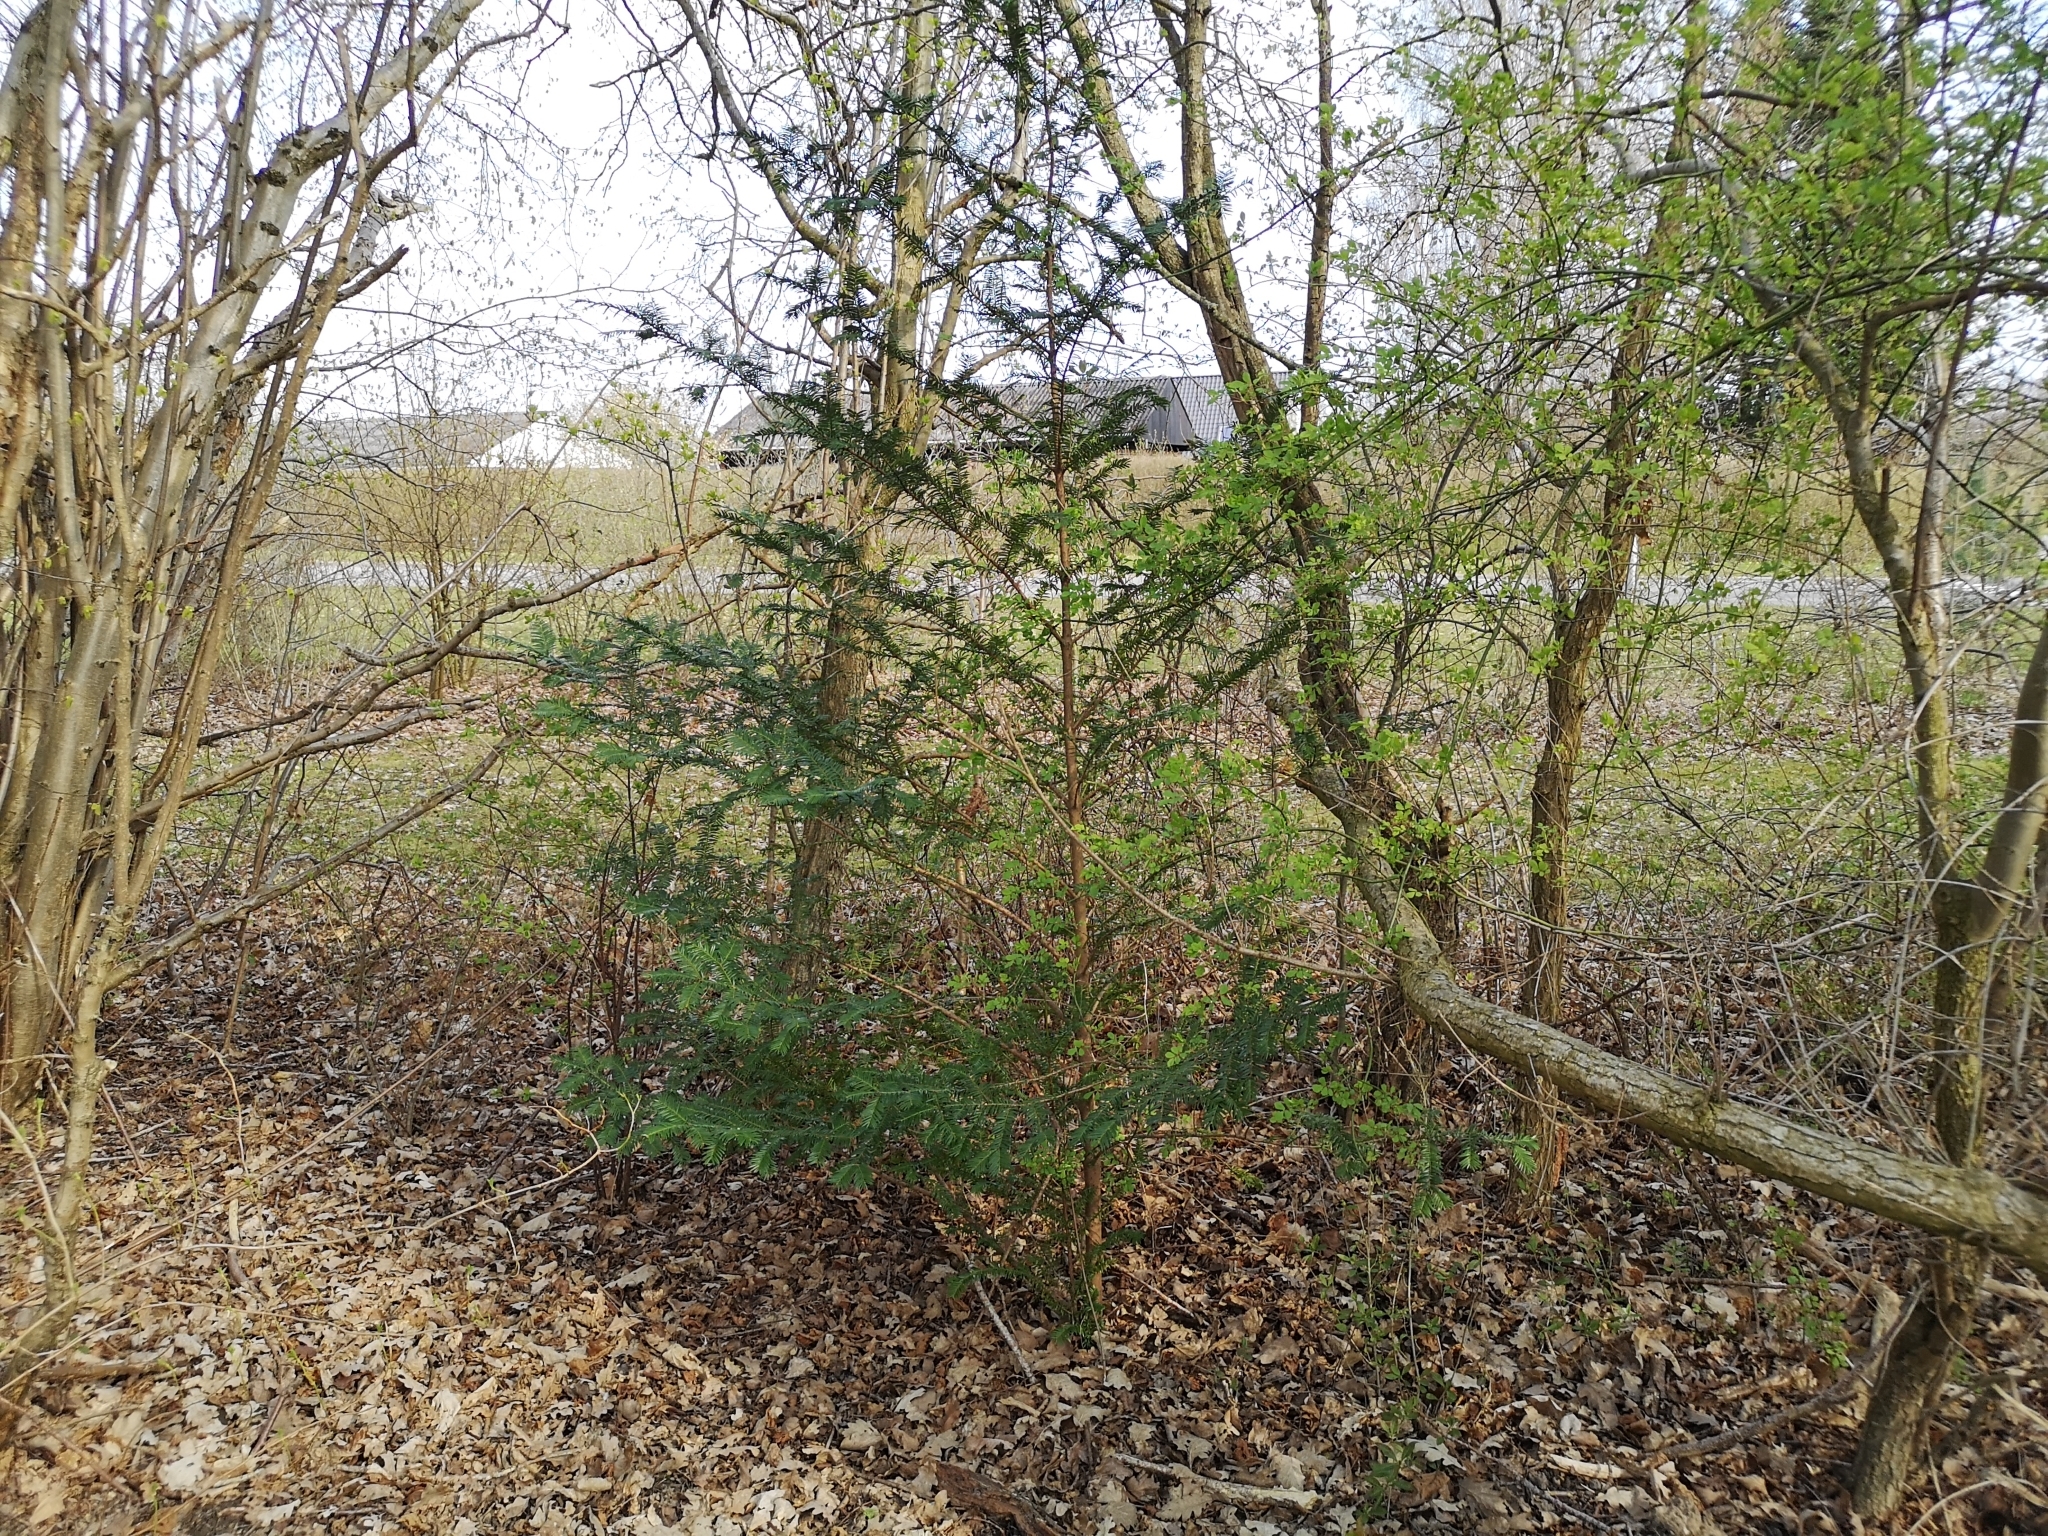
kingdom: Plantae
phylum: Tracheophyta
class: Pinopsida
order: Pinales
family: Taxaceae
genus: Taxus
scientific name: Taxus baccata
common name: Yew
